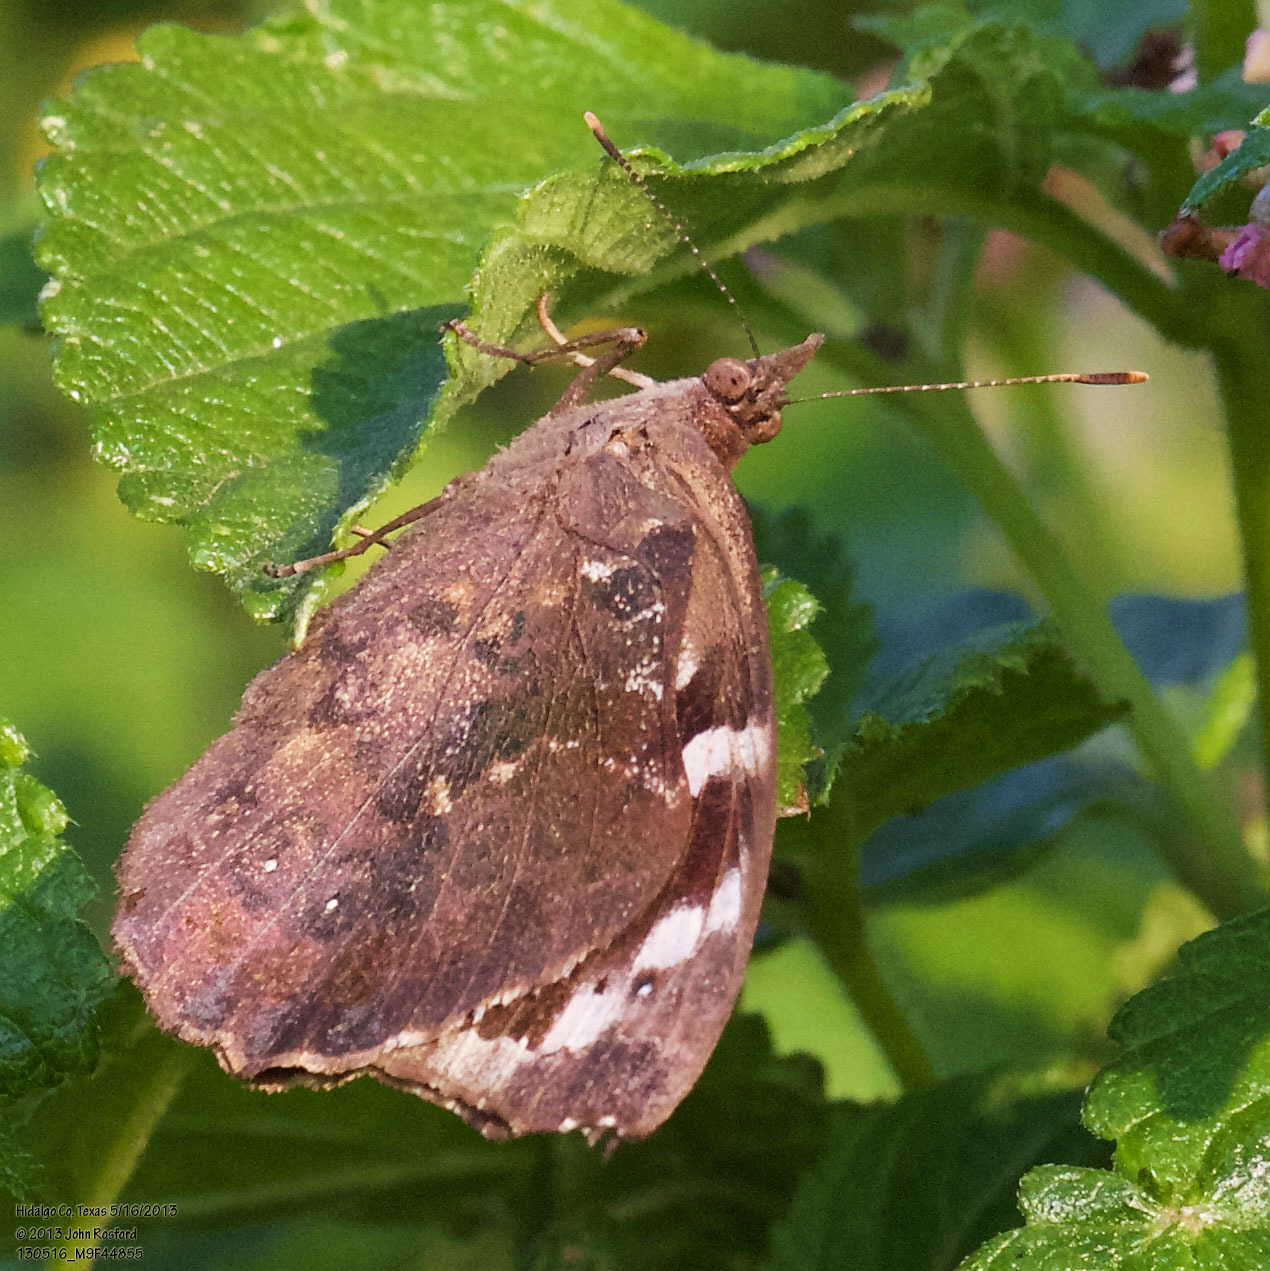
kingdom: Animalia
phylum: Arthropoda
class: Insecta
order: Lepidoptera
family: Nymphalidae
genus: Eunica
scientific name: Eunica tatila
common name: Florida purplewing
